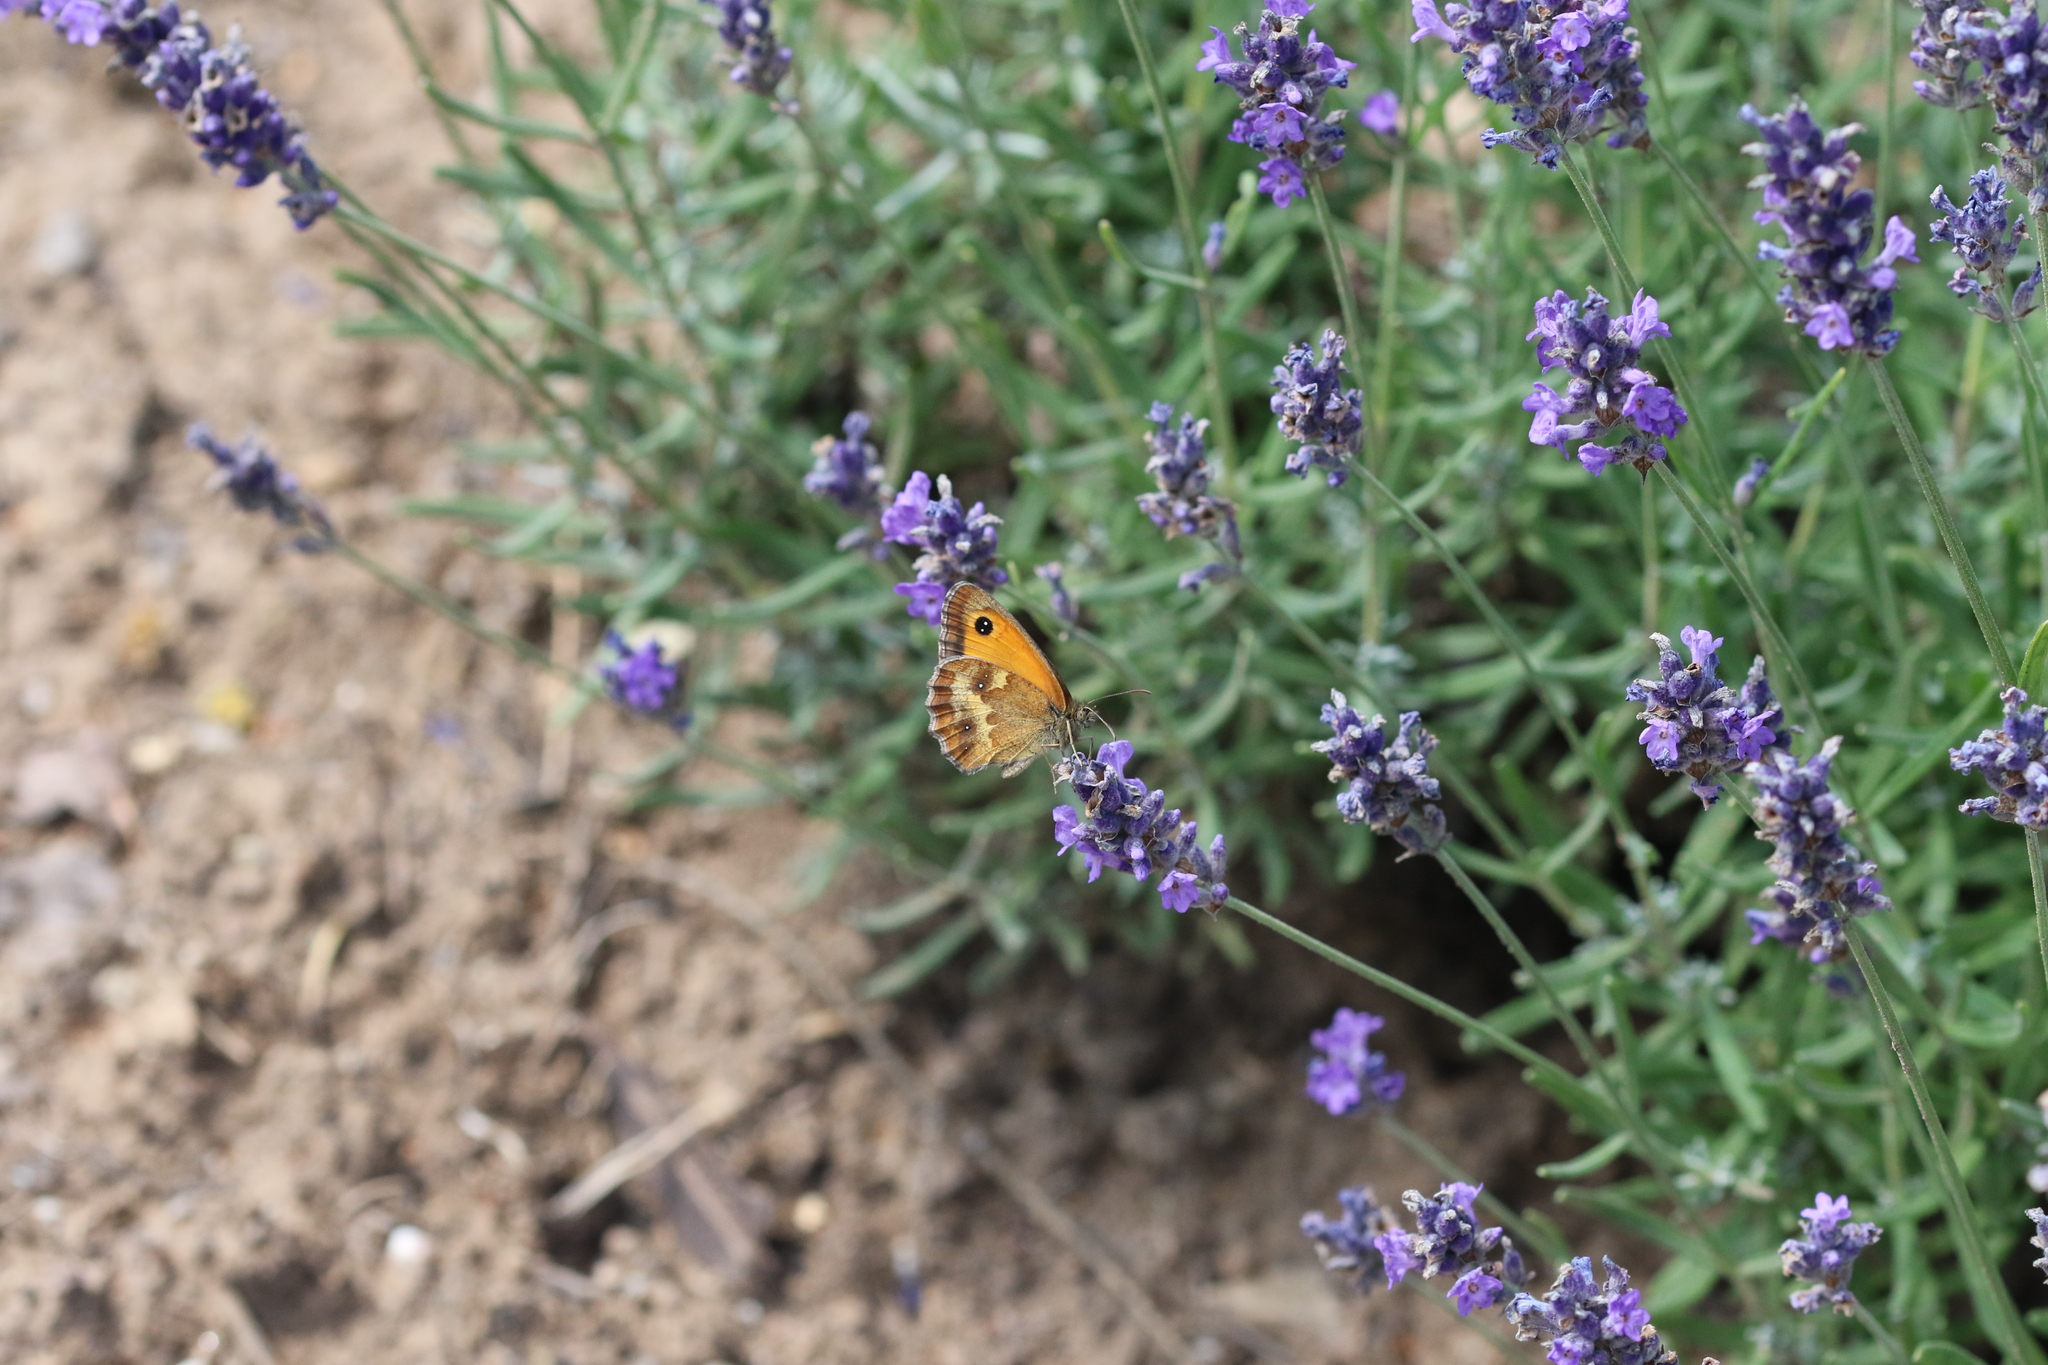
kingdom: Animalia
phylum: Arthropoda
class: Insecta
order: Lepidoptera
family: Nymphalidae
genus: Pyronia
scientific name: Pyronia tithonus
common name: Gatekeeper
